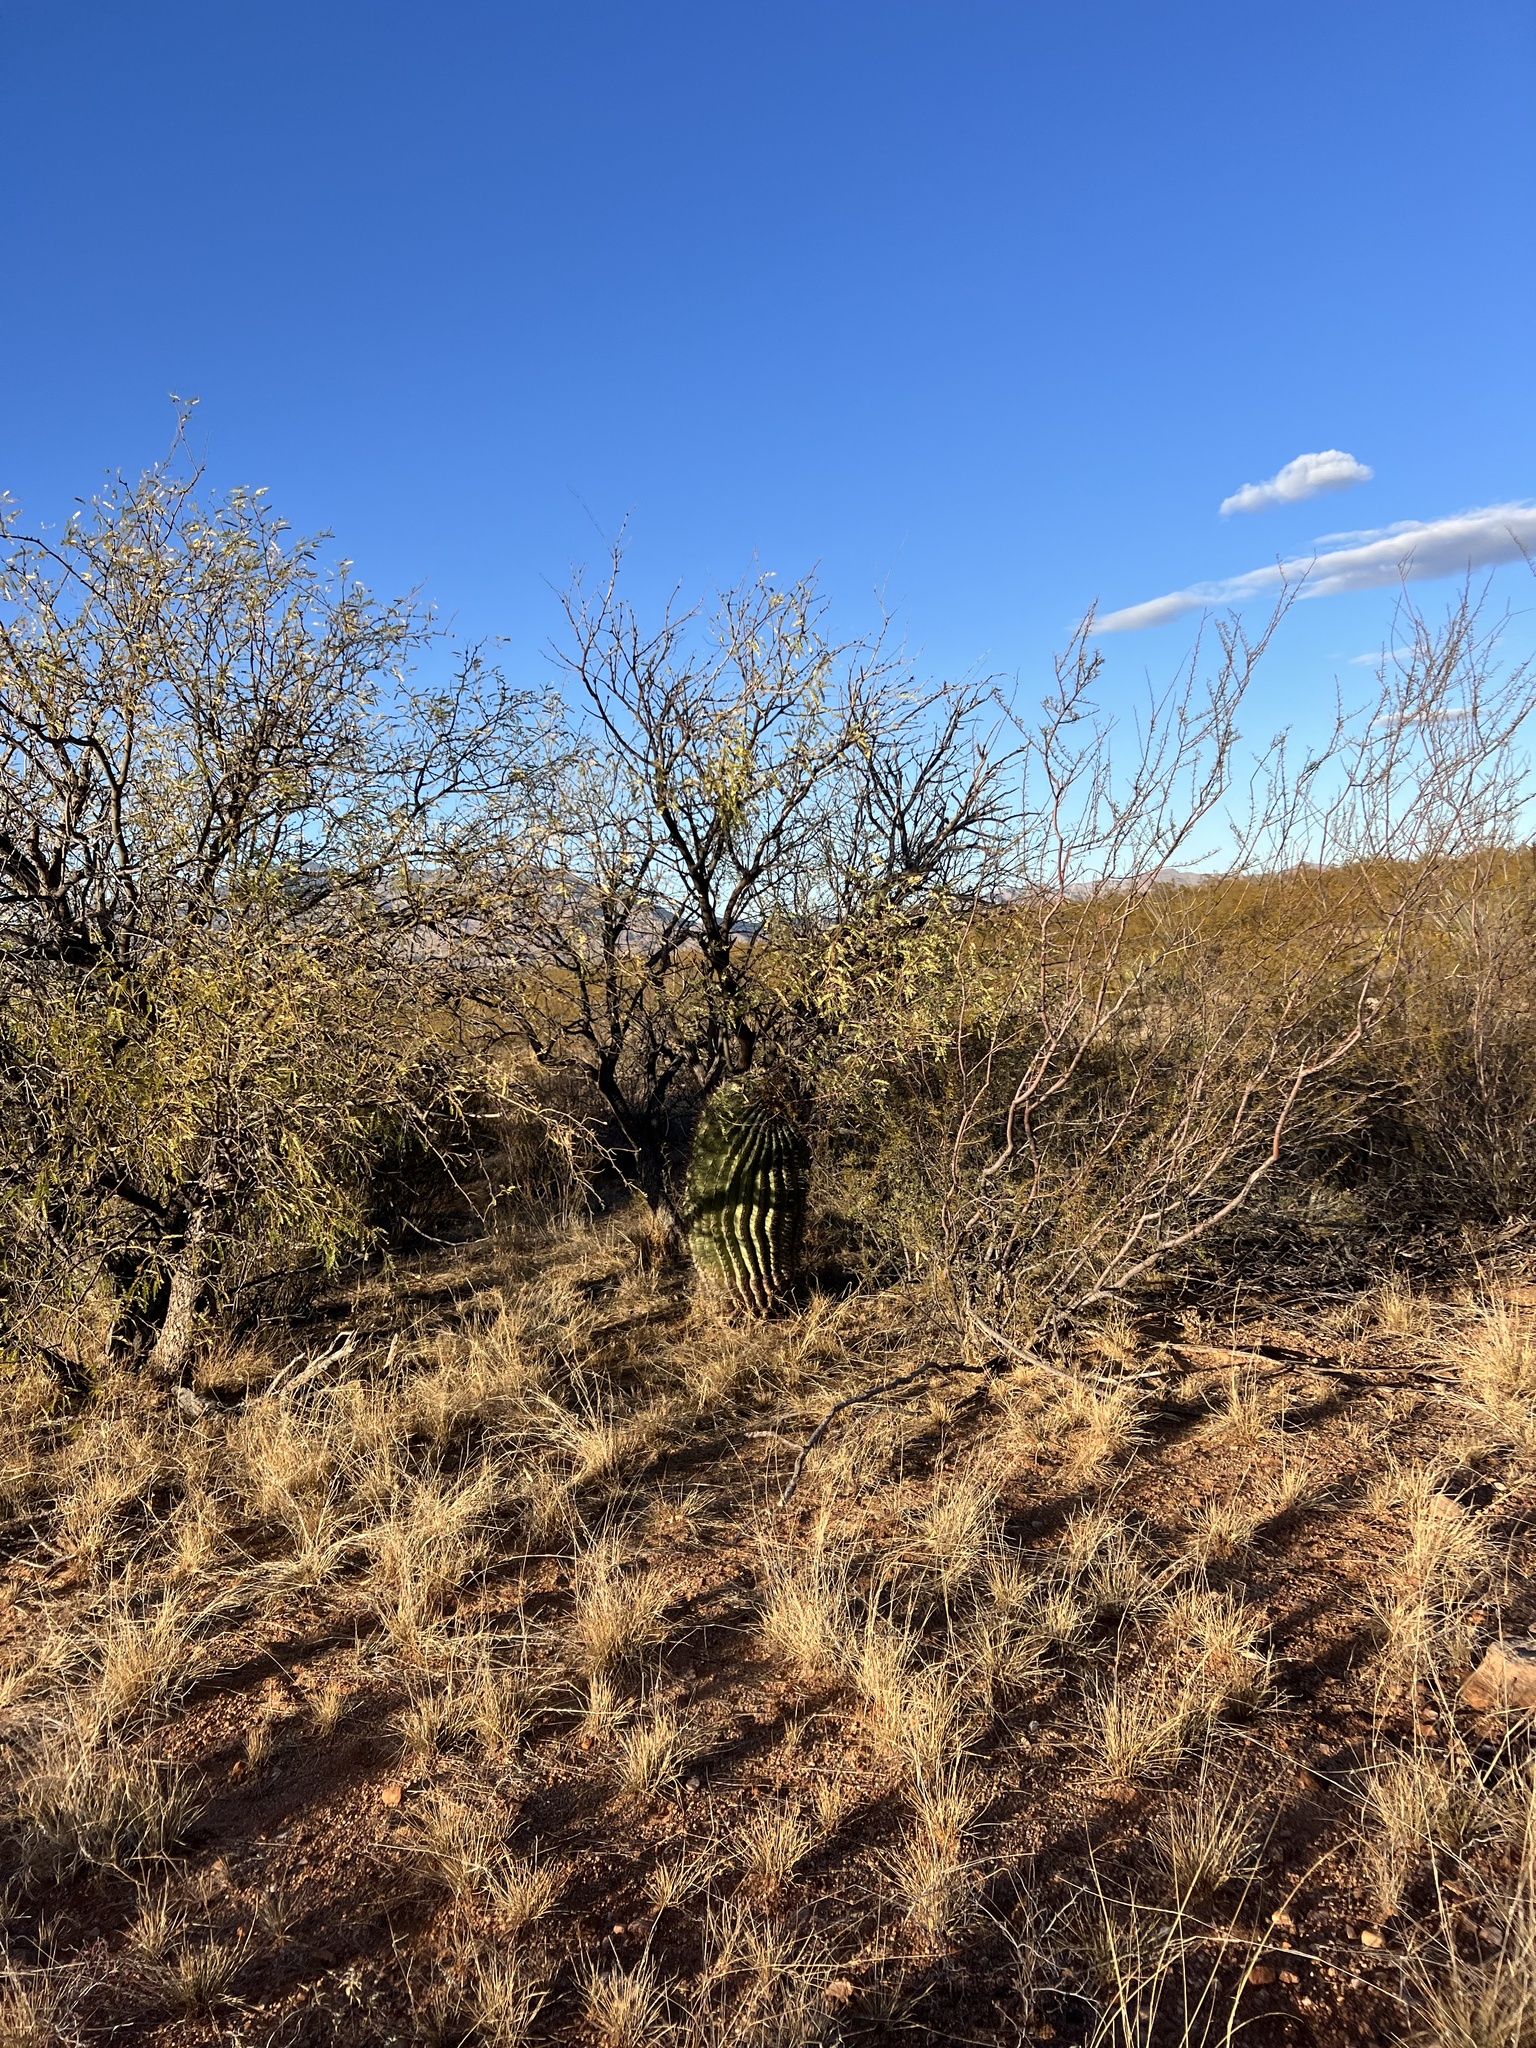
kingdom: Plantae
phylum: Tracheophyta
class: Magnoliopsida
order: Caryophyllales
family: Cactaceae
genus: Ferocactus
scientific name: Ferocactus wislizeni
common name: Candy barrel cactus
